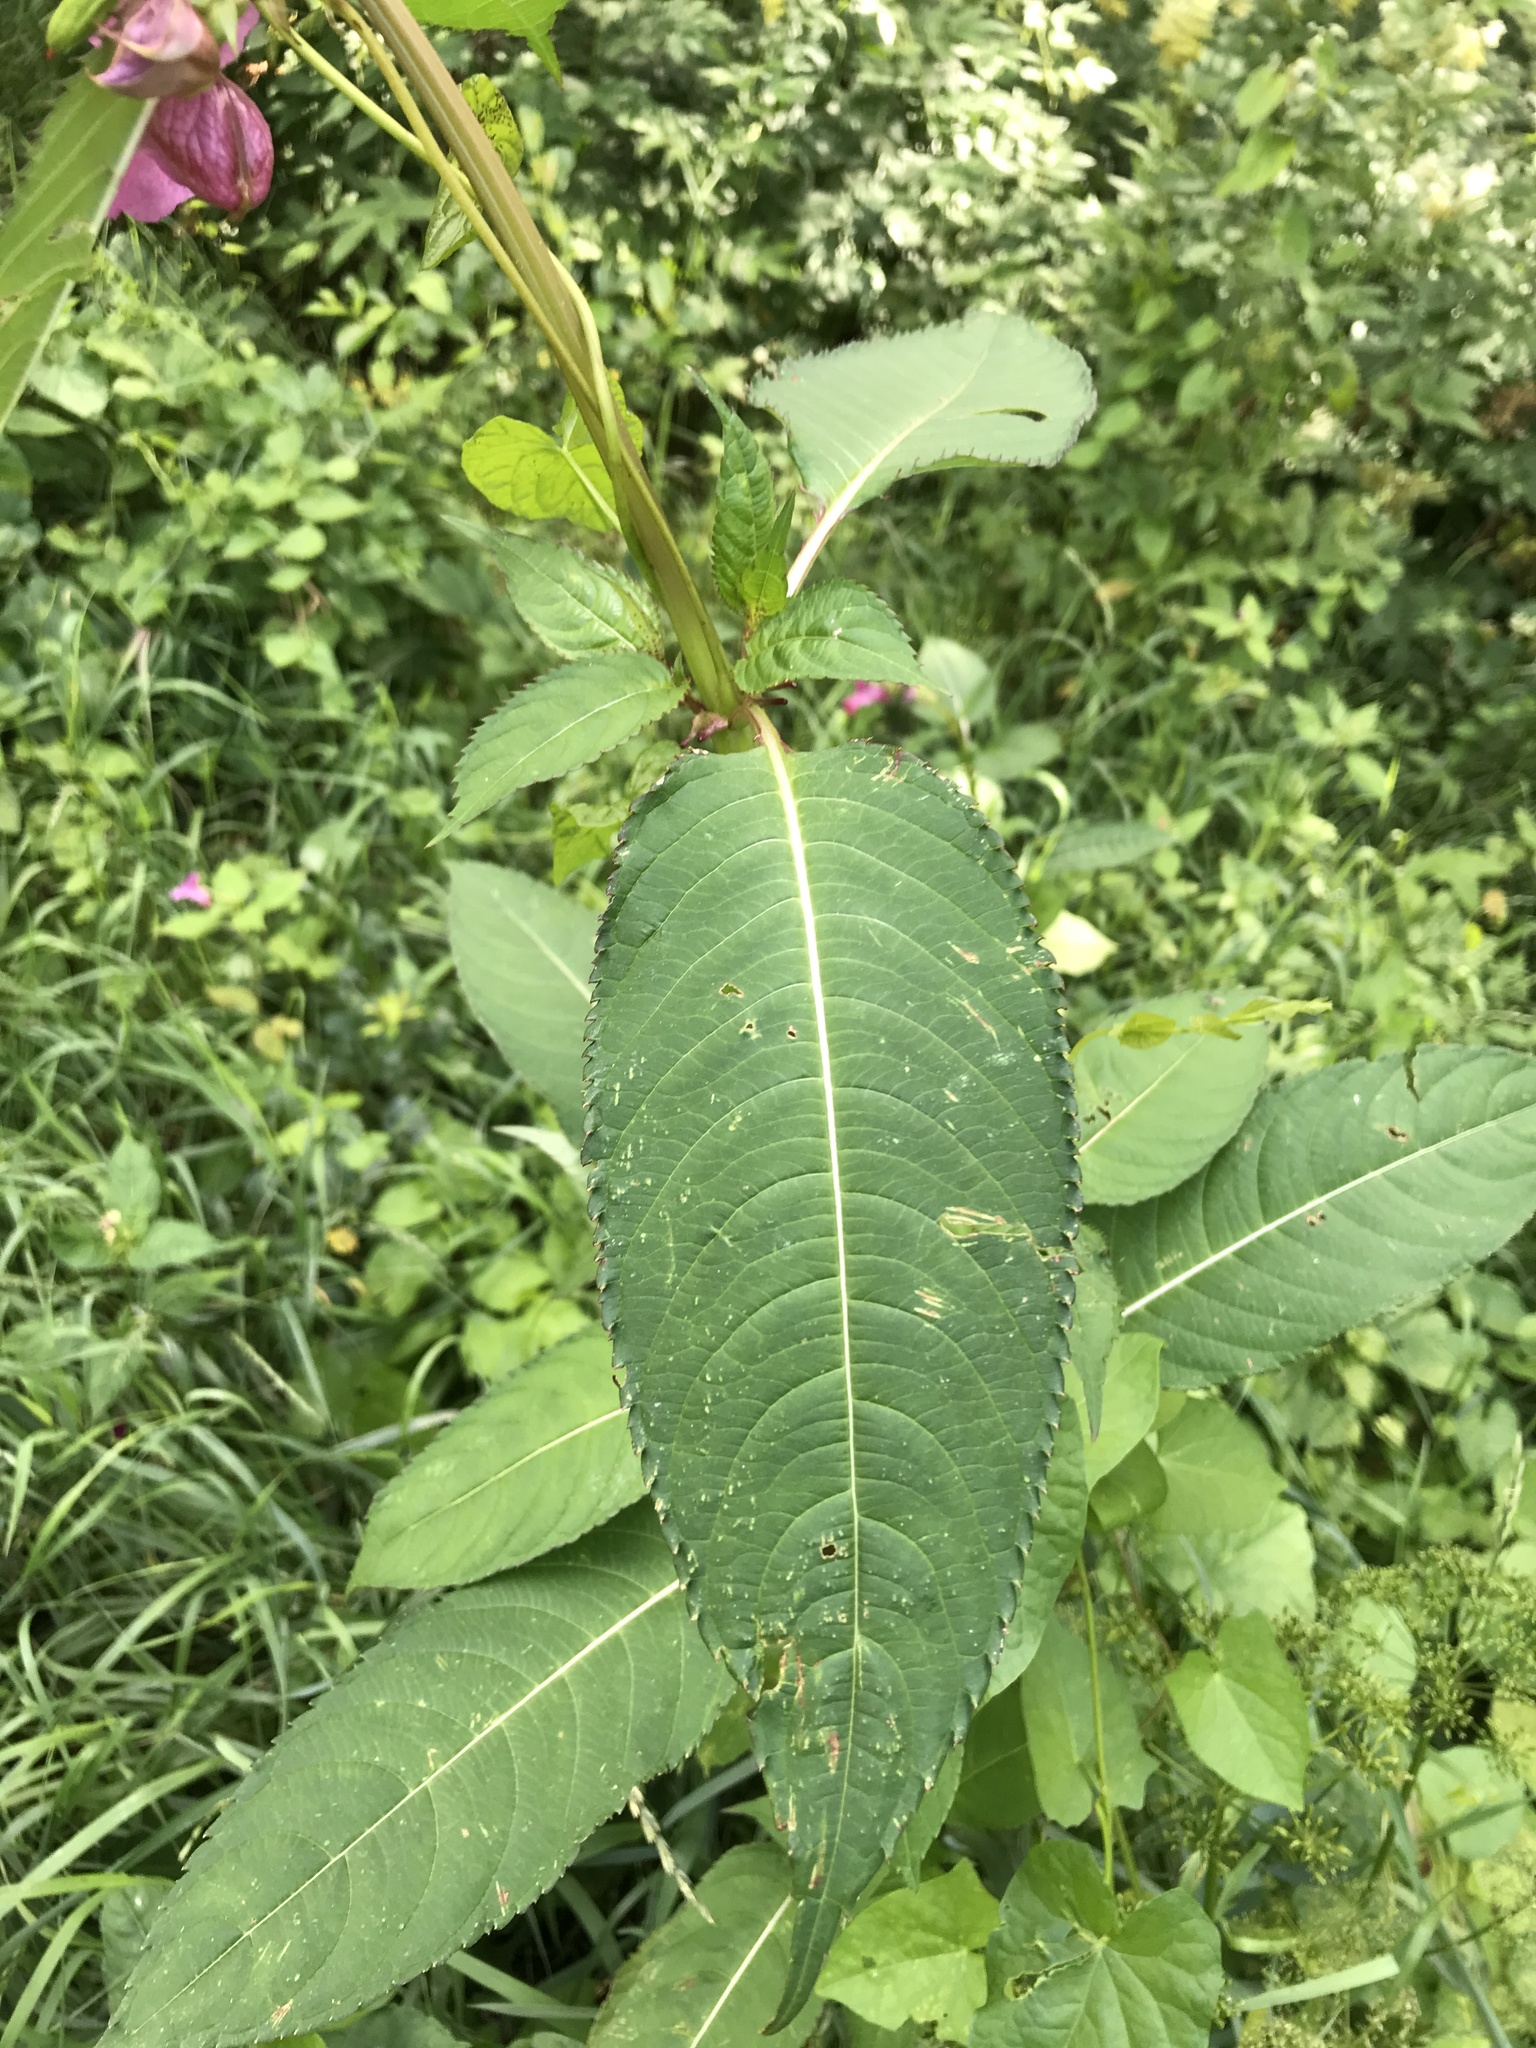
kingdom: Plantae
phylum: Tracheophyta
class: Magnoliopsida
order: Ericales
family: Balsaminaceae
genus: Impatiens
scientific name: Impatiens glandulifera
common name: Himalayan balsam
